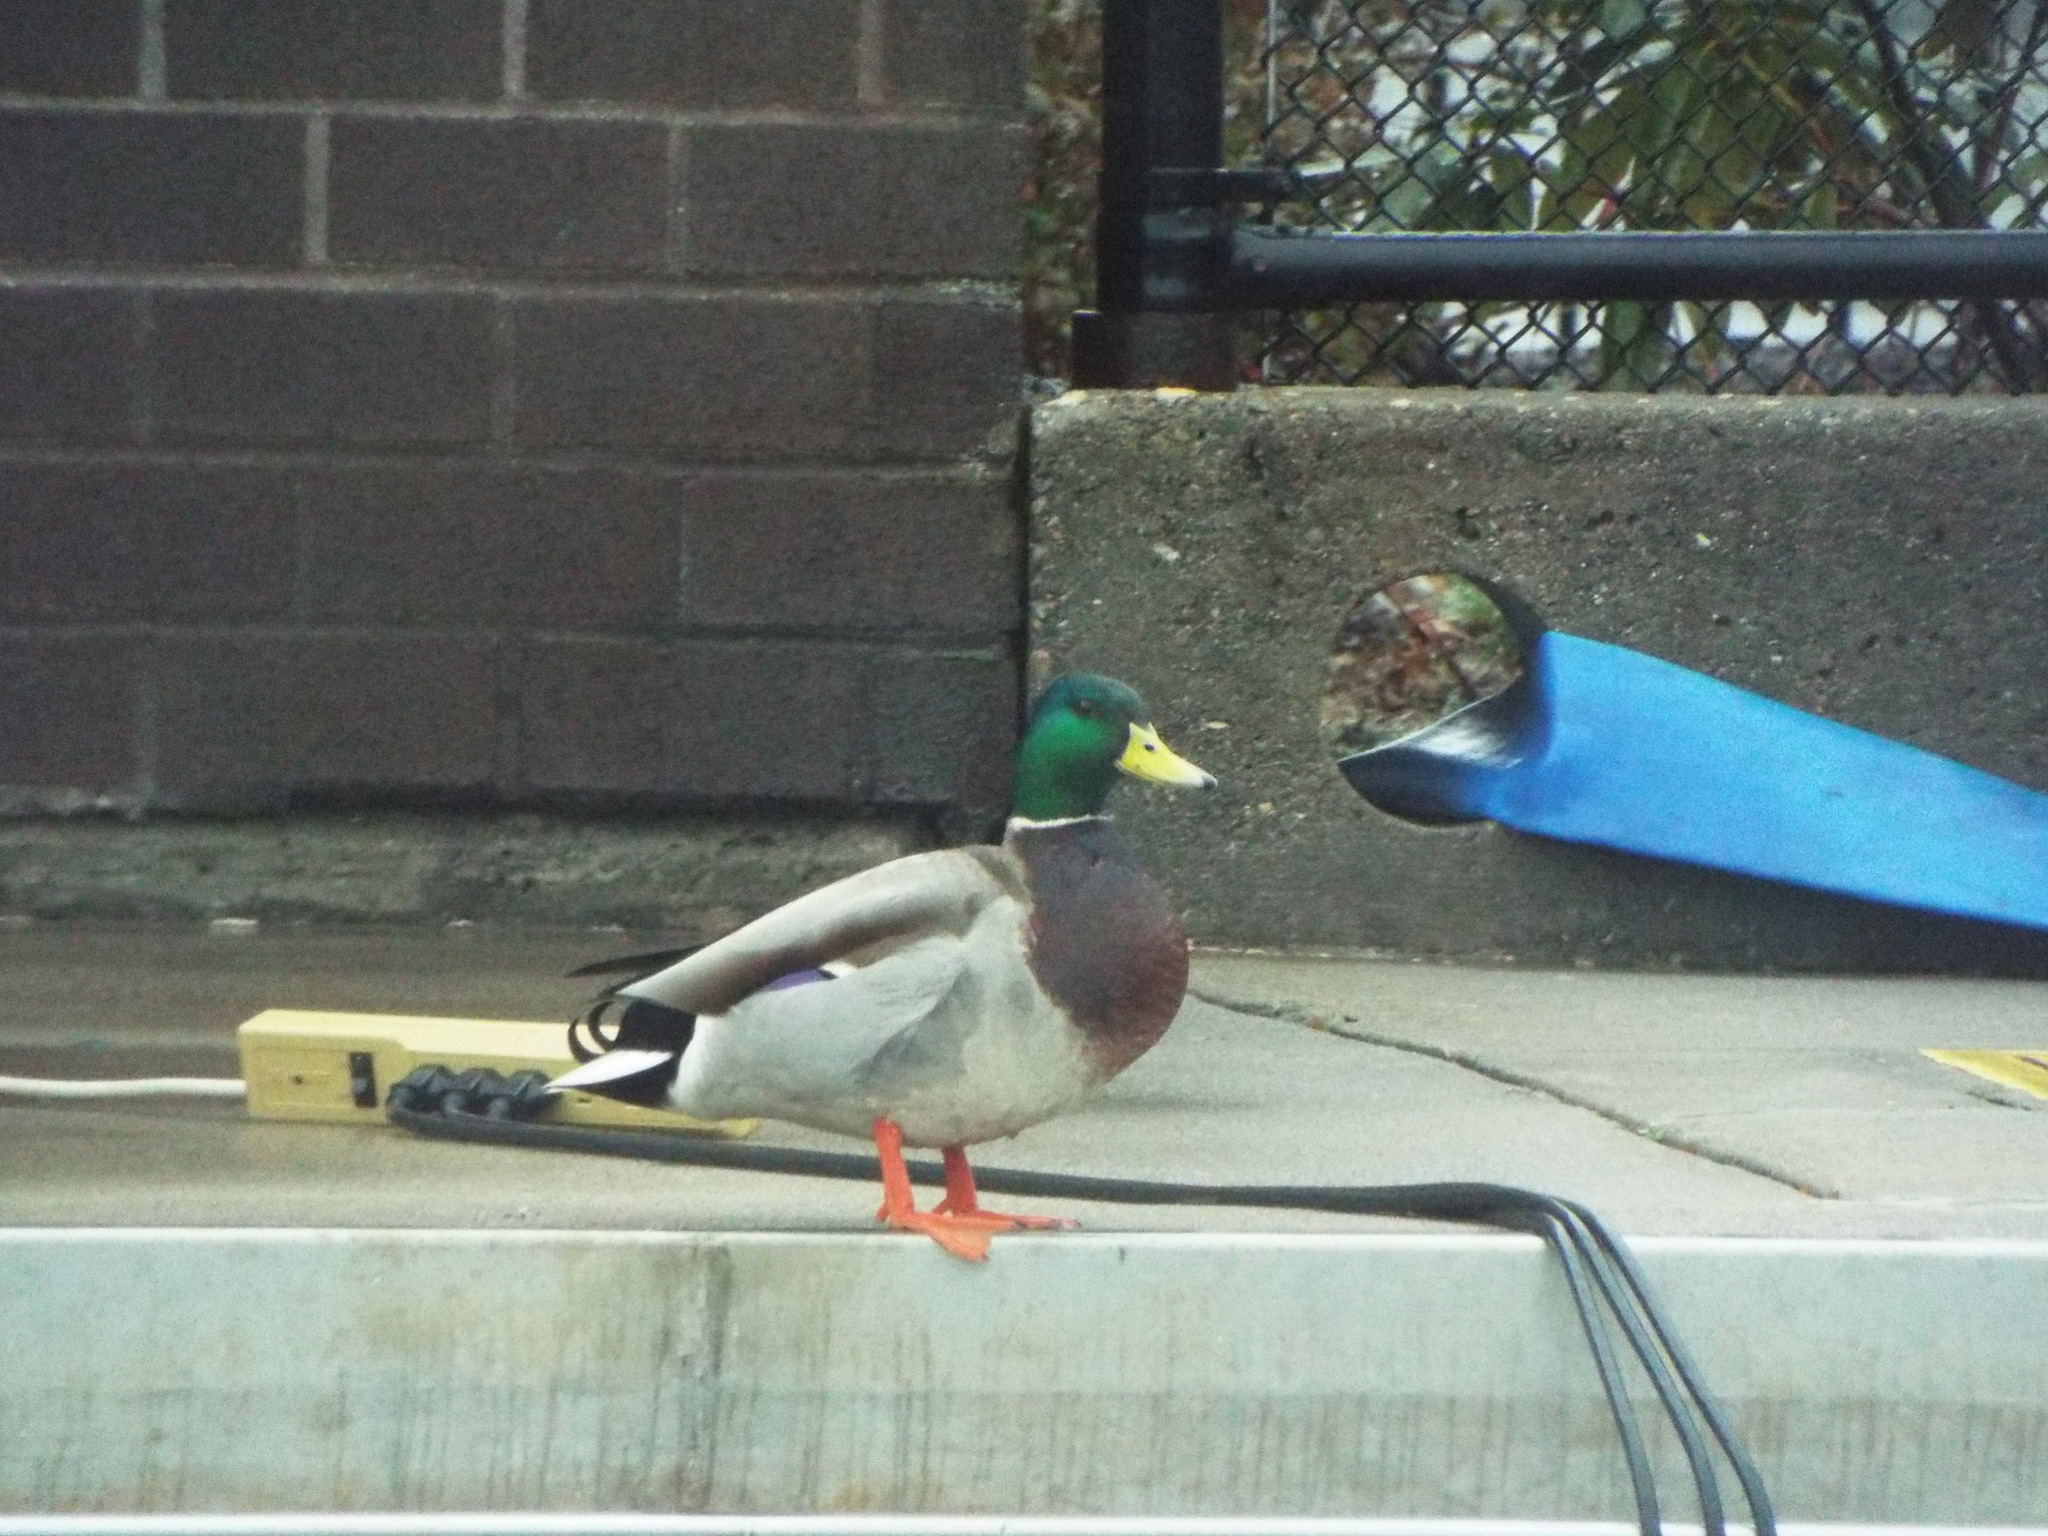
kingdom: Animalia
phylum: Chordata
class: Aves
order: Anseriformes
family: Anatidae
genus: Anas
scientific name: Anas platyrhynchos
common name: Mallard
